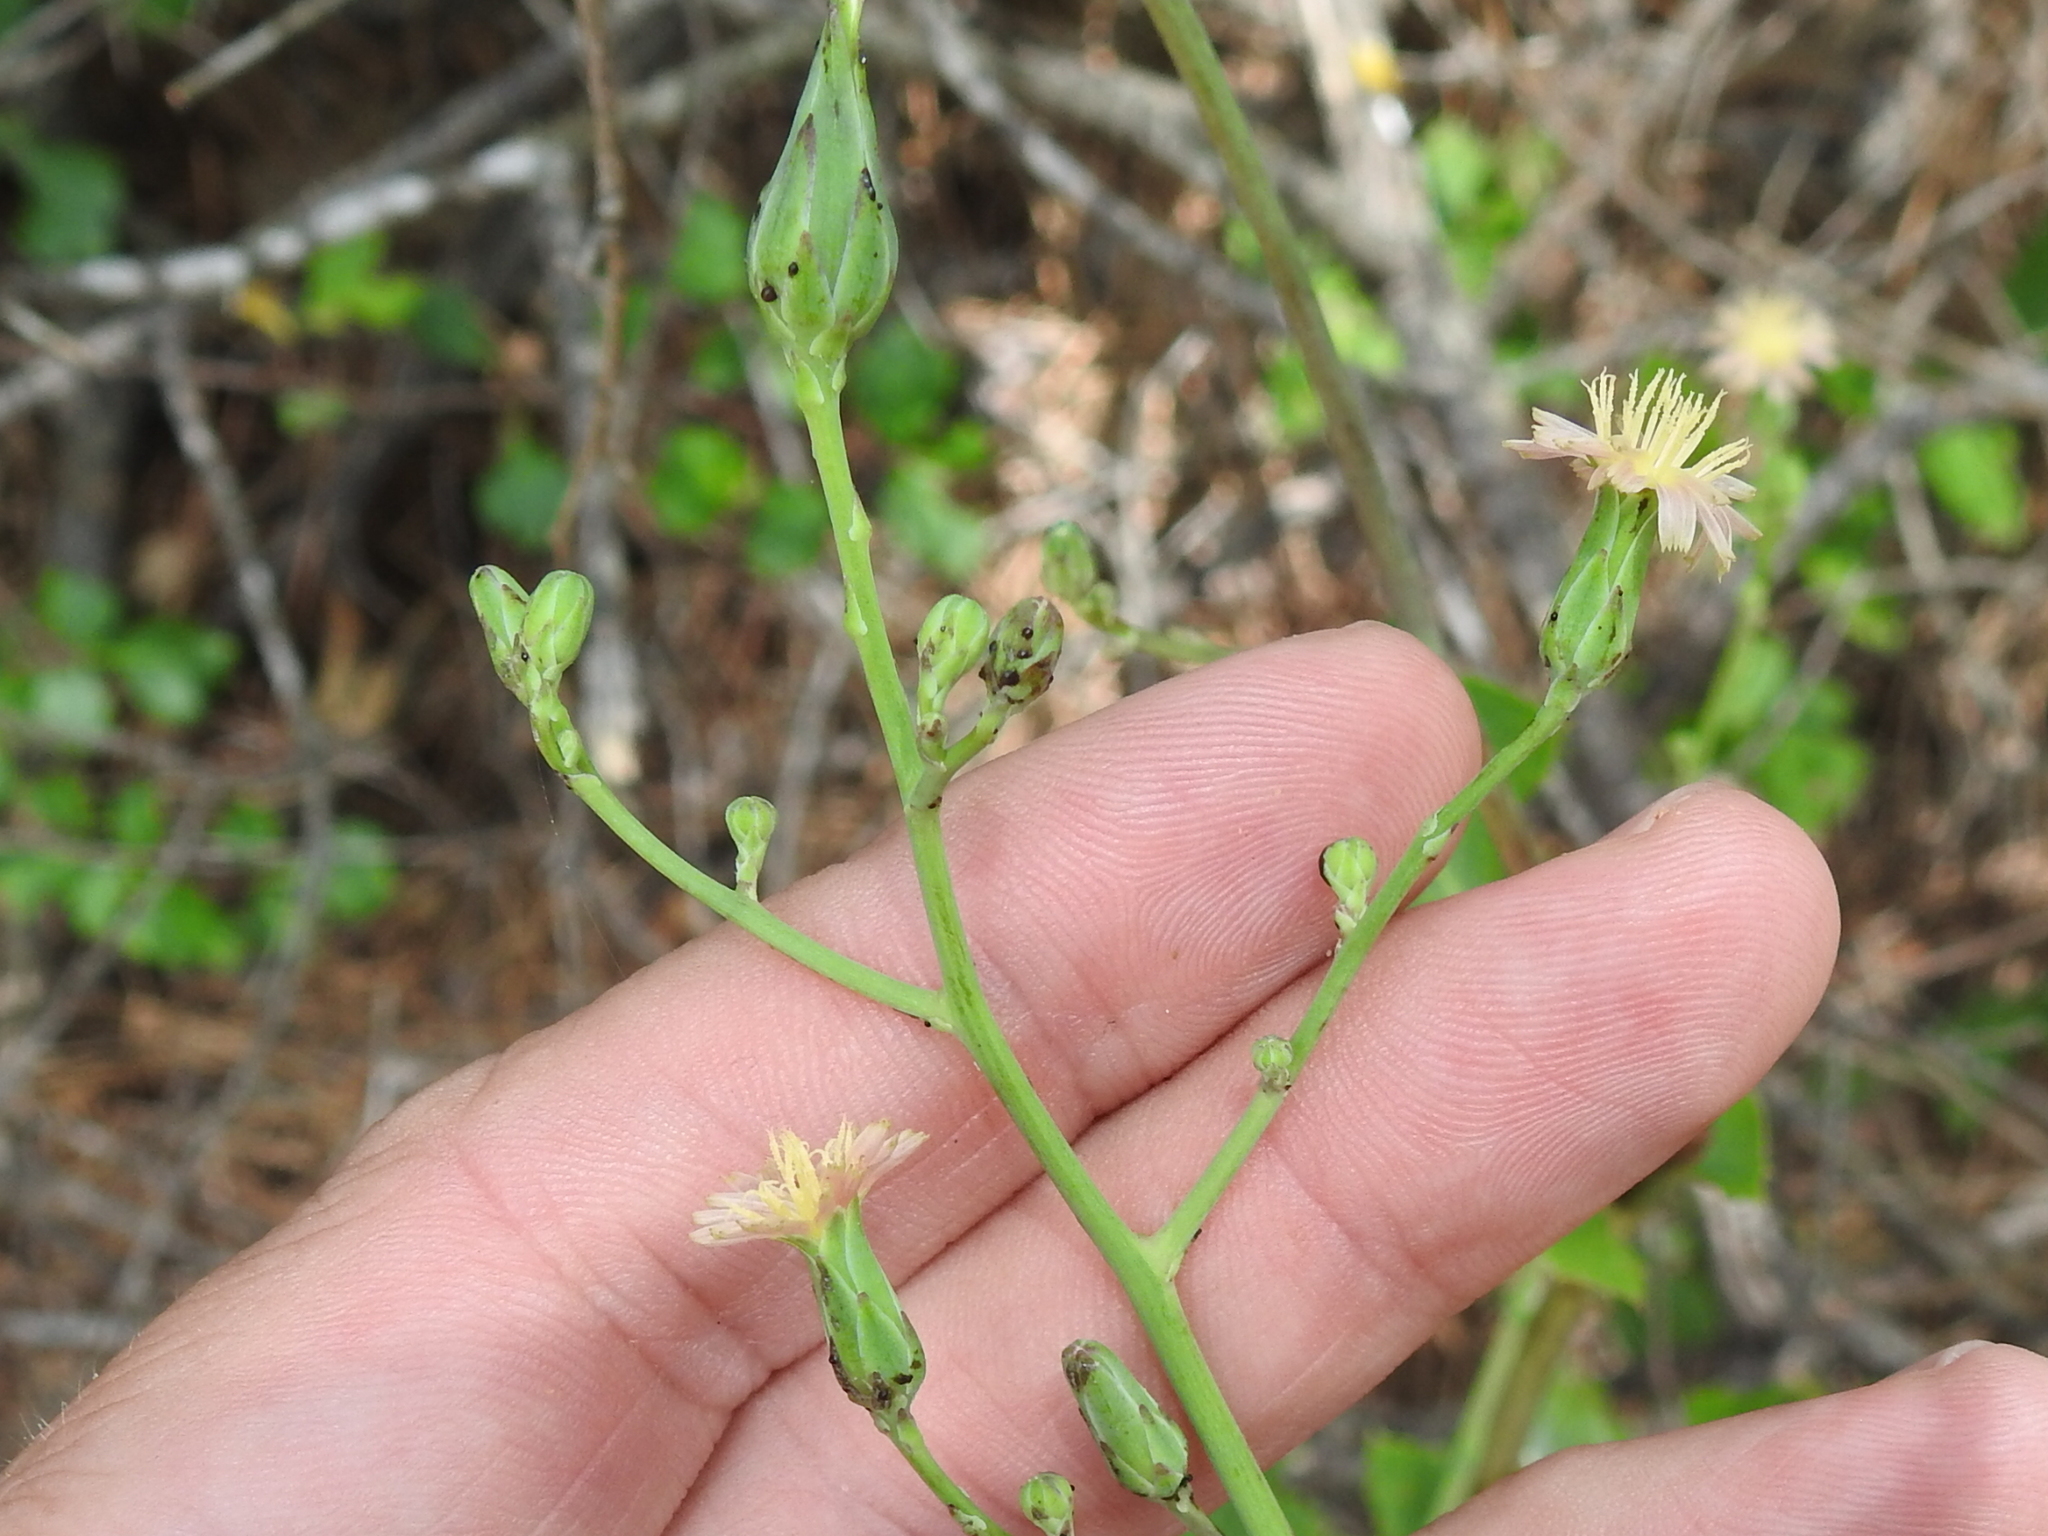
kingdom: Plantae
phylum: Tracheophyta
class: Magnoliopsida
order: Asterales
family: Asteraceae
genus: Lactuca
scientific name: Lactuca ludoviciana
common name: Louisiana lettuce
